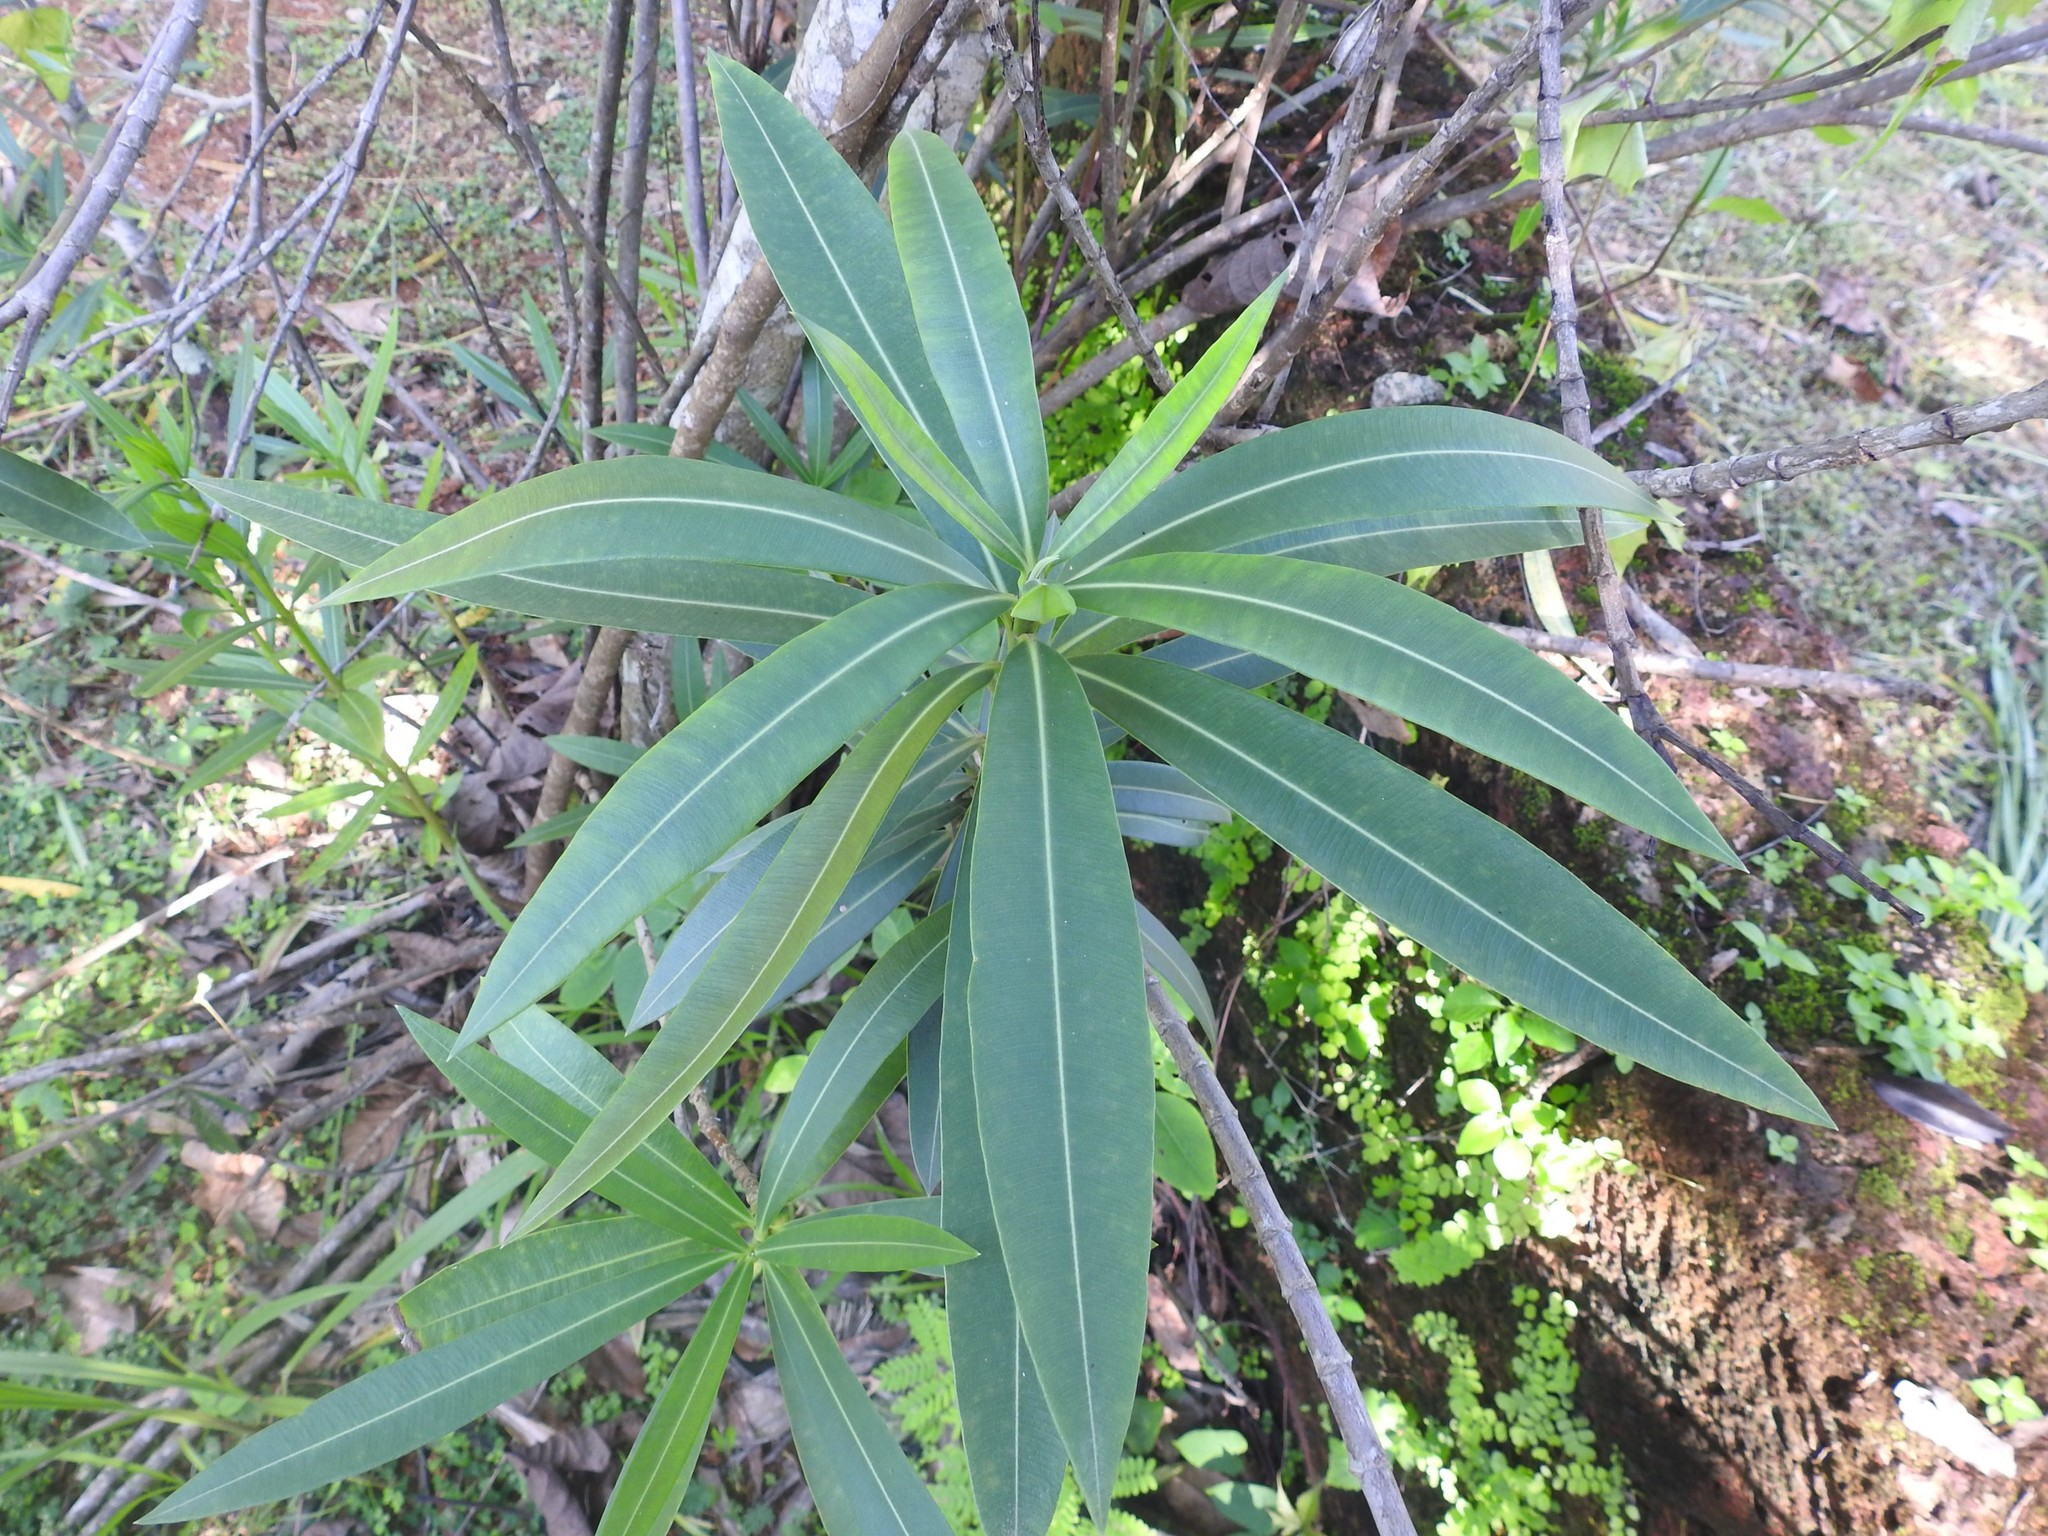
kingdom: Plantae
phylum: Tracheophyta
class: Magnoliopsida
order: Gentianales
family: Apocynaceae
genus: Nerium
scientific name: Nerium oleander
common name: Oleander
